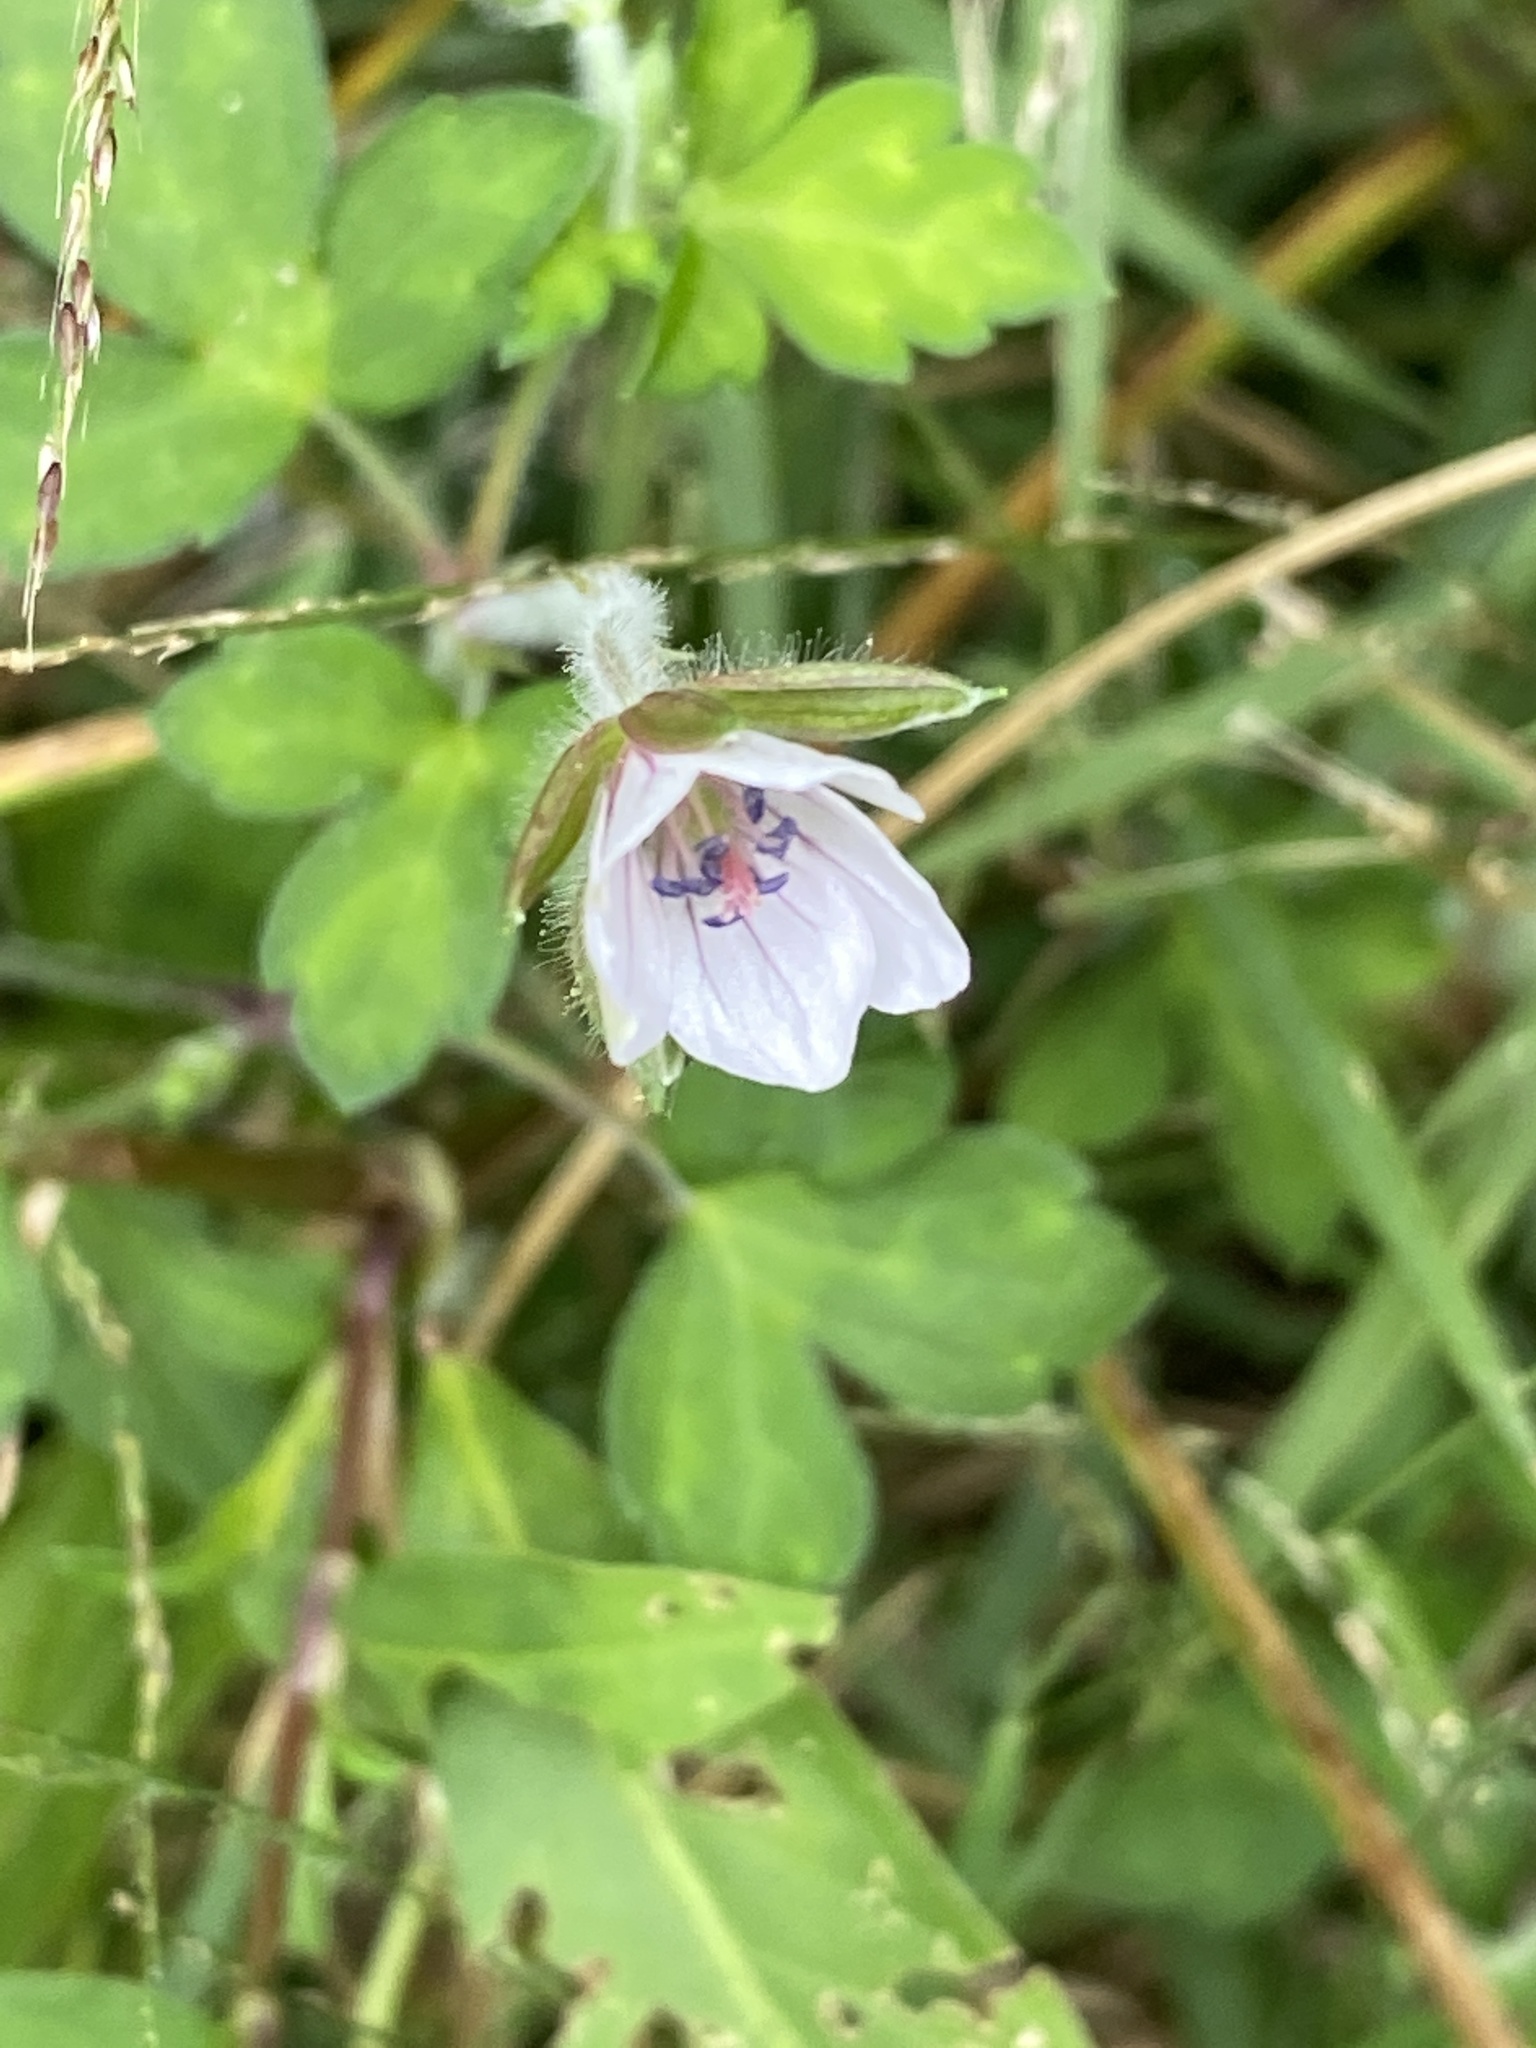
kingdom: Plantae
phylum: Tracheophyta
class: Magnoliopsida
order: Geraniales
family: Geraniaceae
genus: Geranium
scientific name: Geranium thunbergii
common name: Dewdrop crane's-bill
